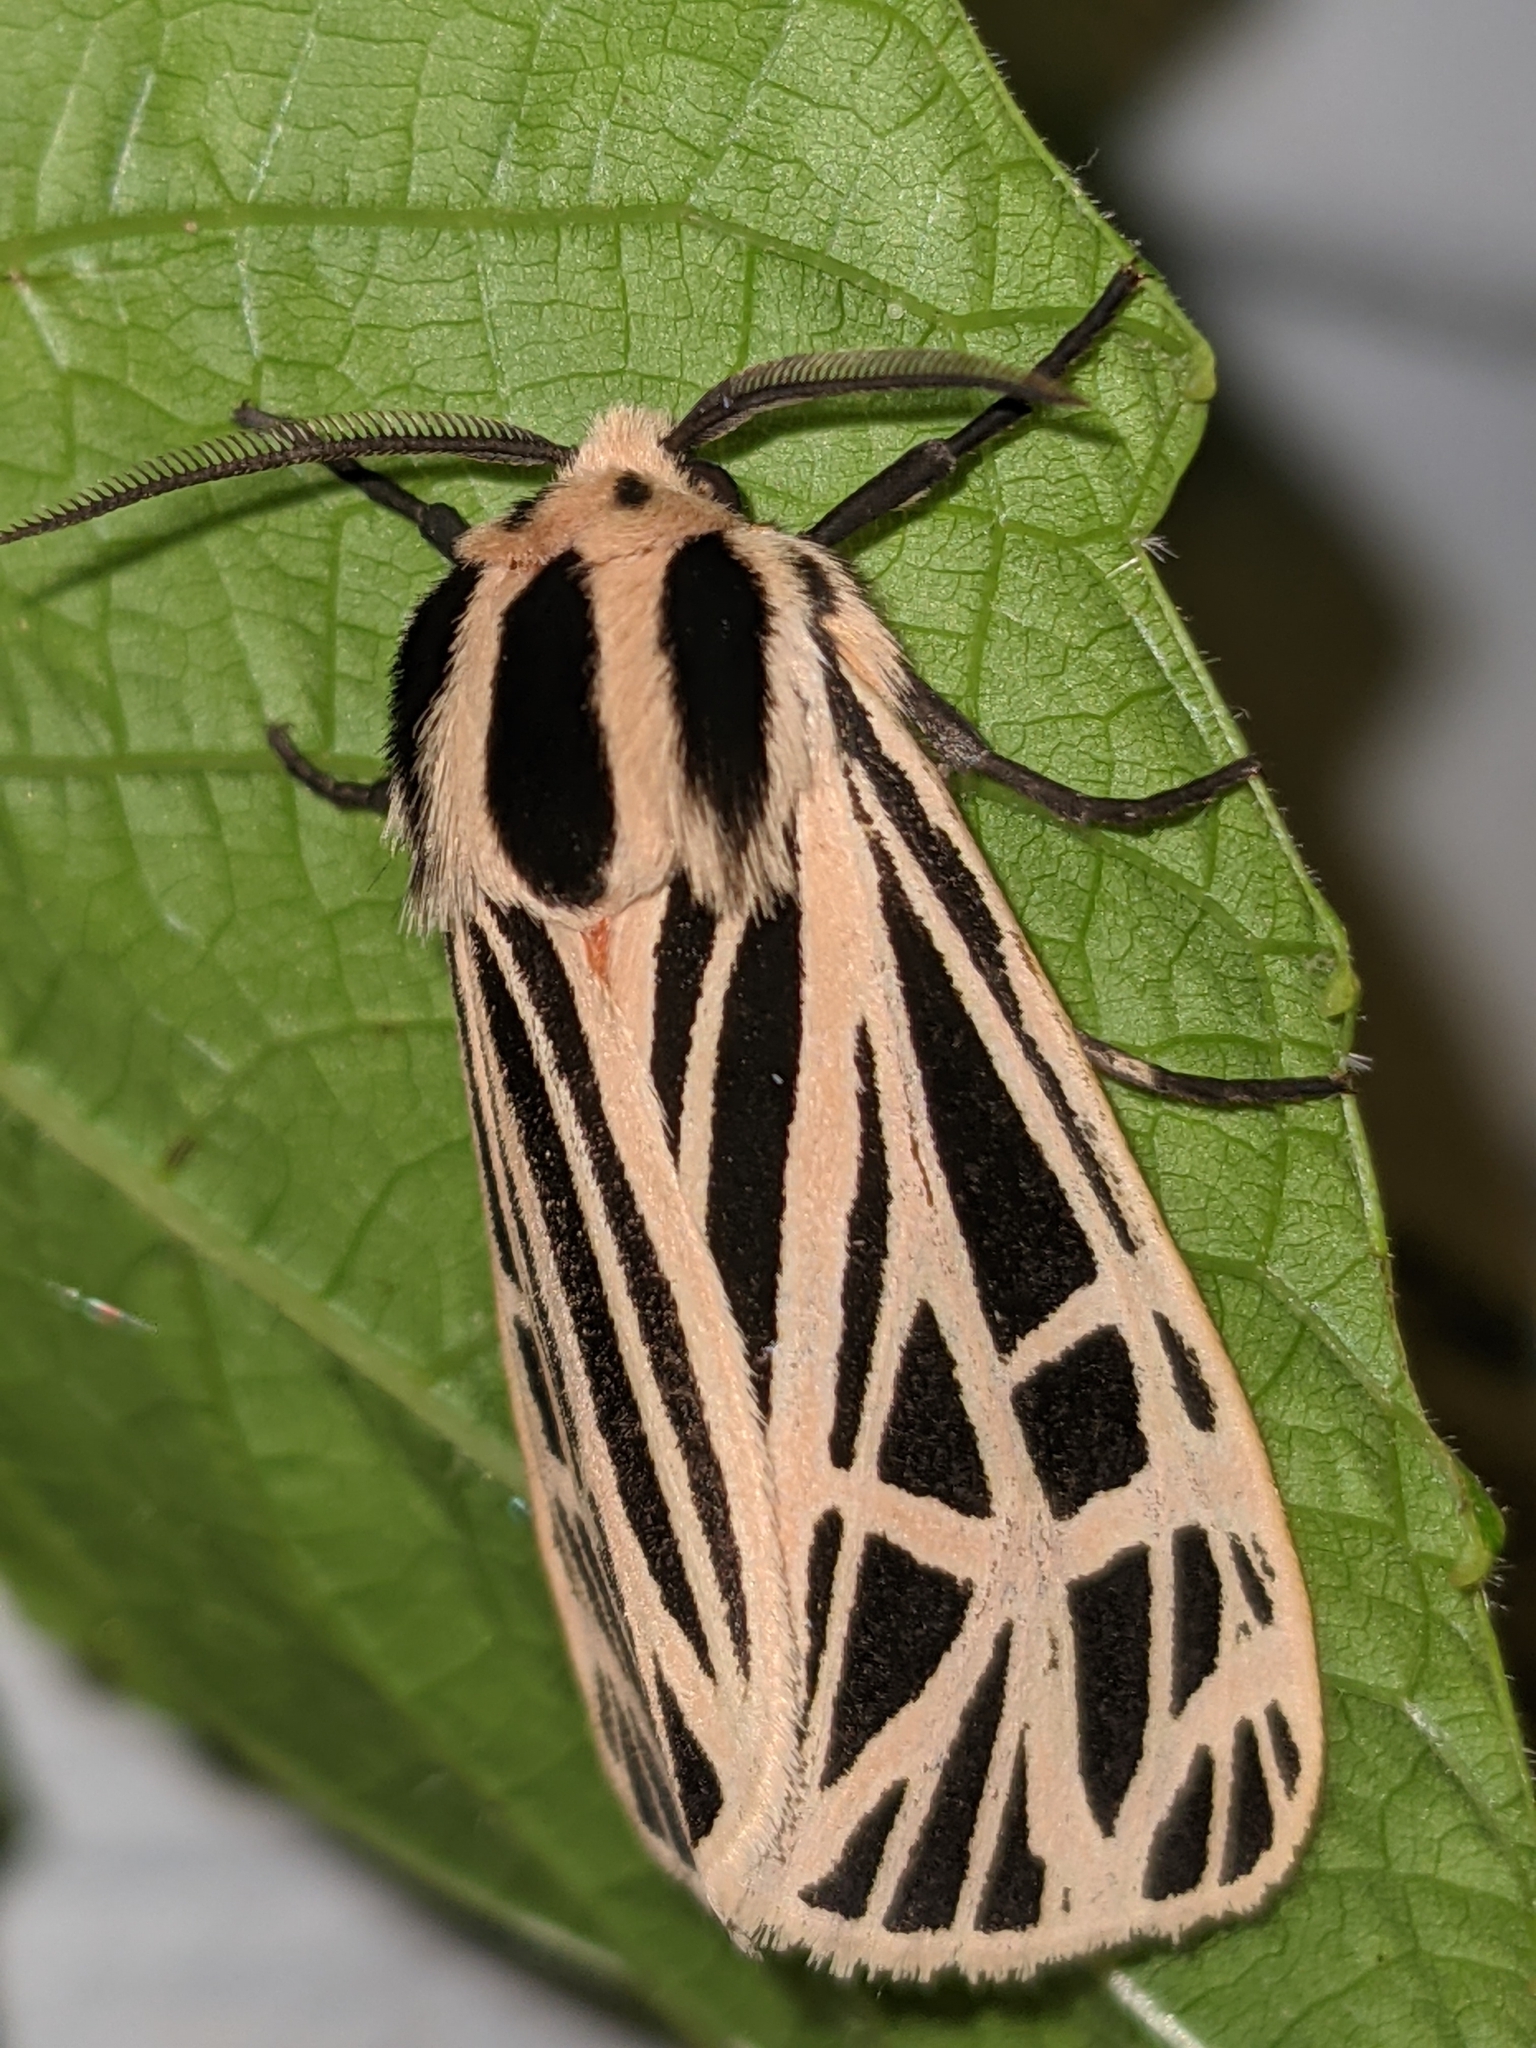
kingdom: Animalia
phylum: Arthropoda
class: Insecta
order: Lepidoptera
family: Erebidae
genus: Grammia
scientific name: Grammia virgo
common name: Virgin tiger moth
